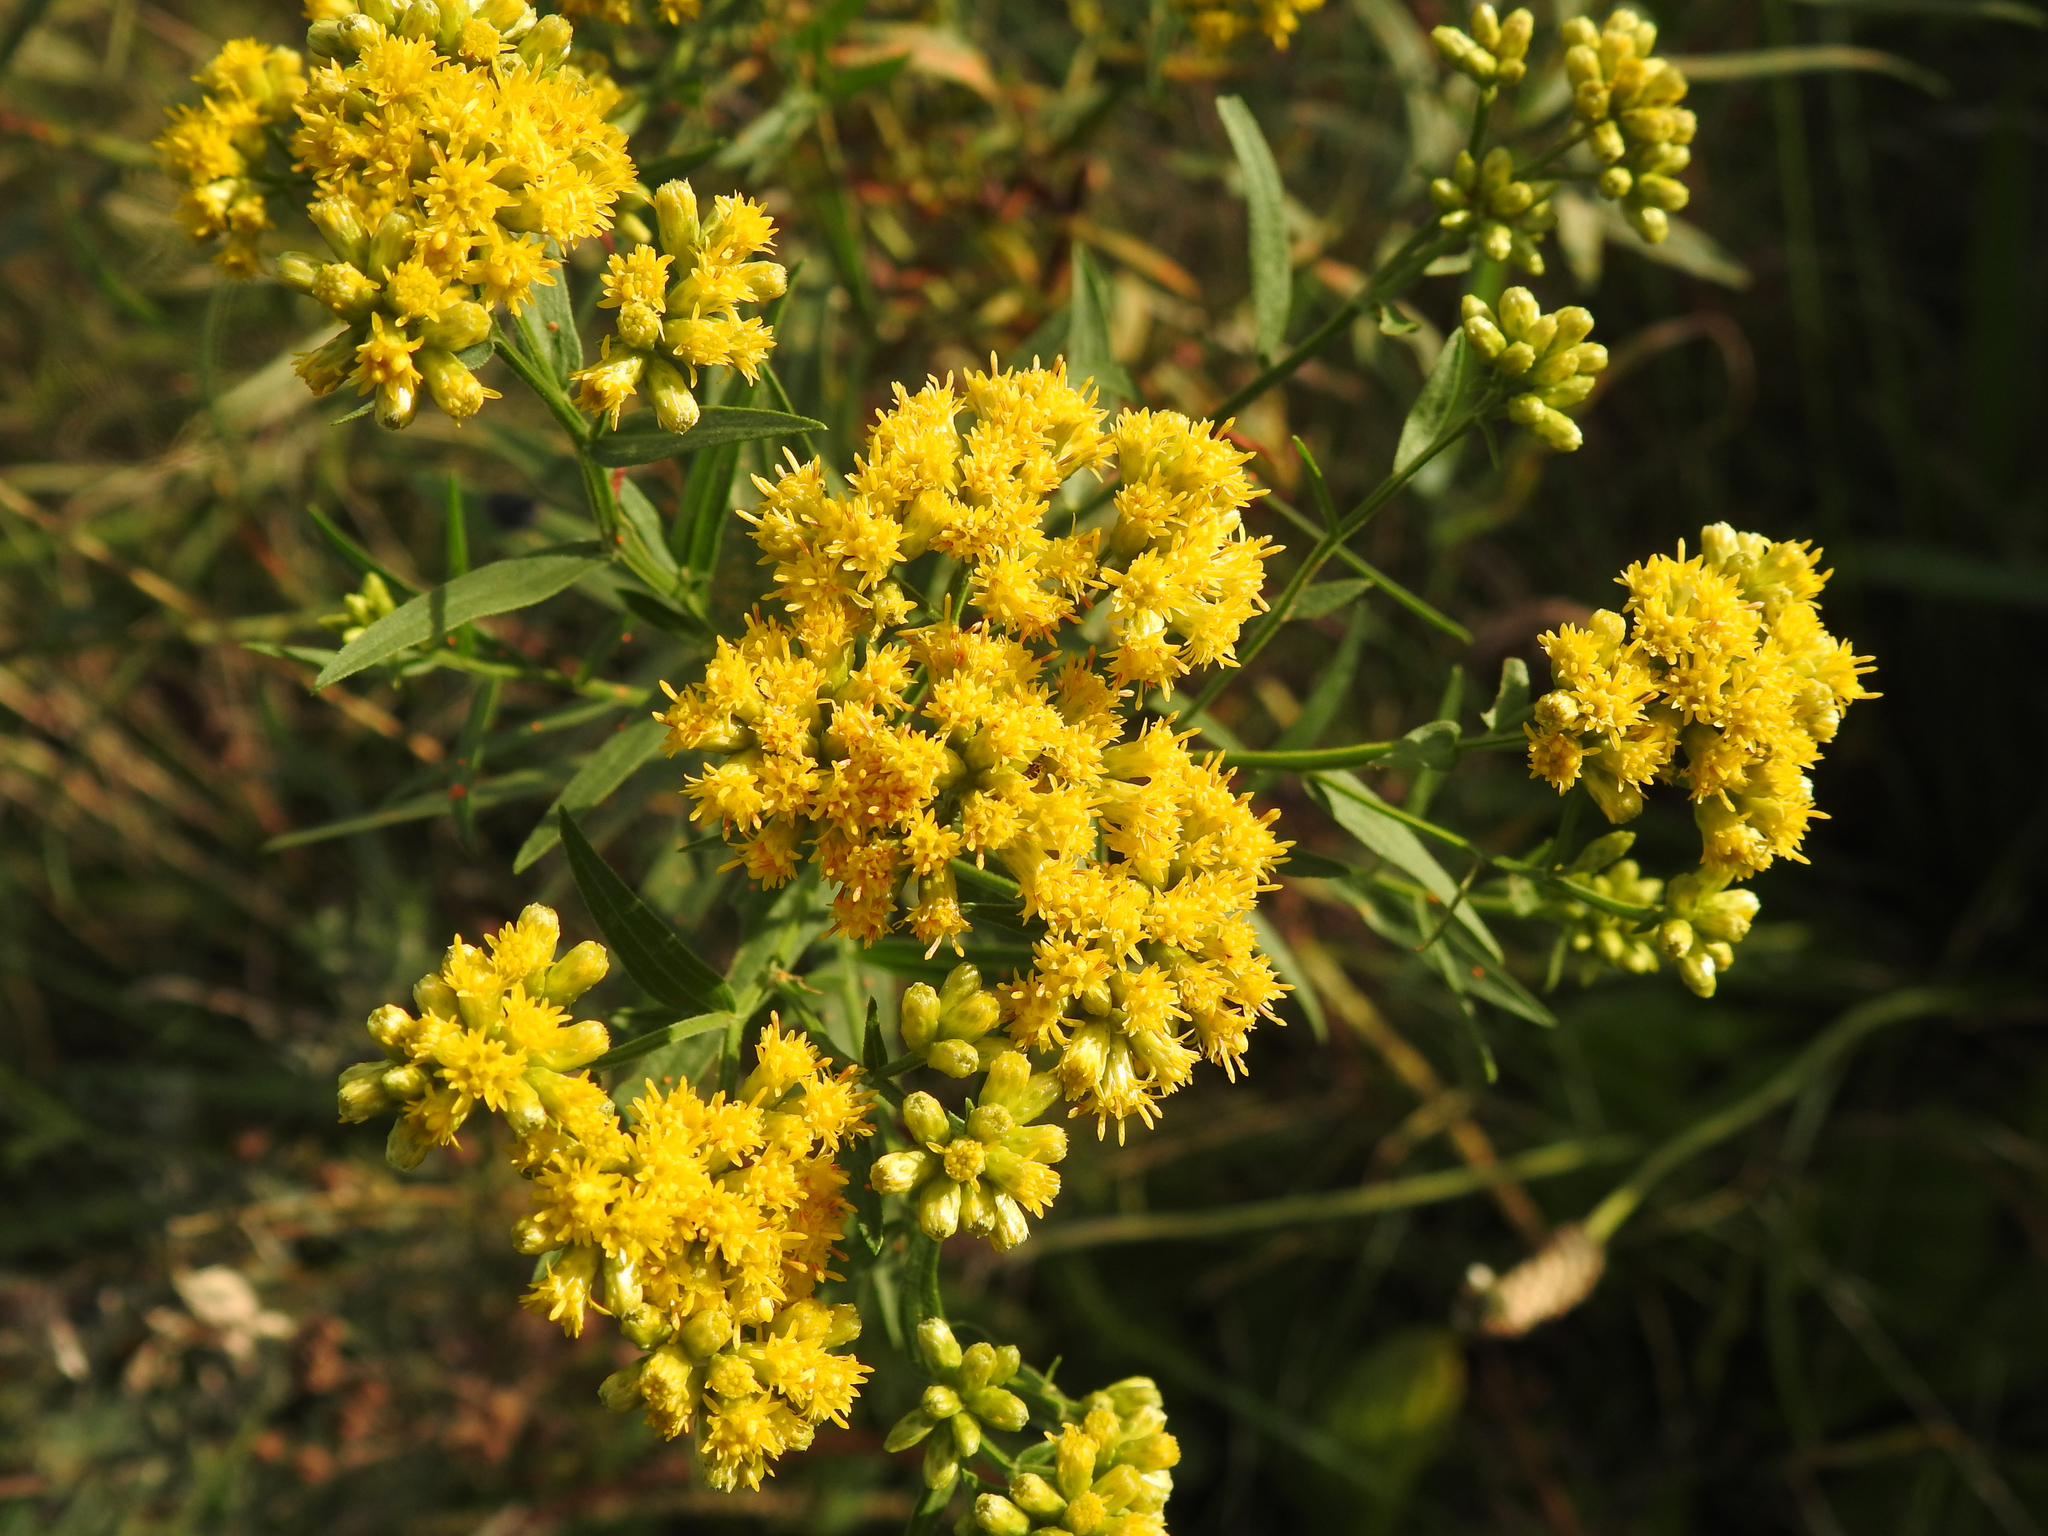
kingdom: Plantae
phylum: Tracheophyta
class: Magnoliopsida
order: Asterales
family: Asteraceae
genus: Euthamia
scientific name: Euthamia graminifolia
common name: Common goldentop
